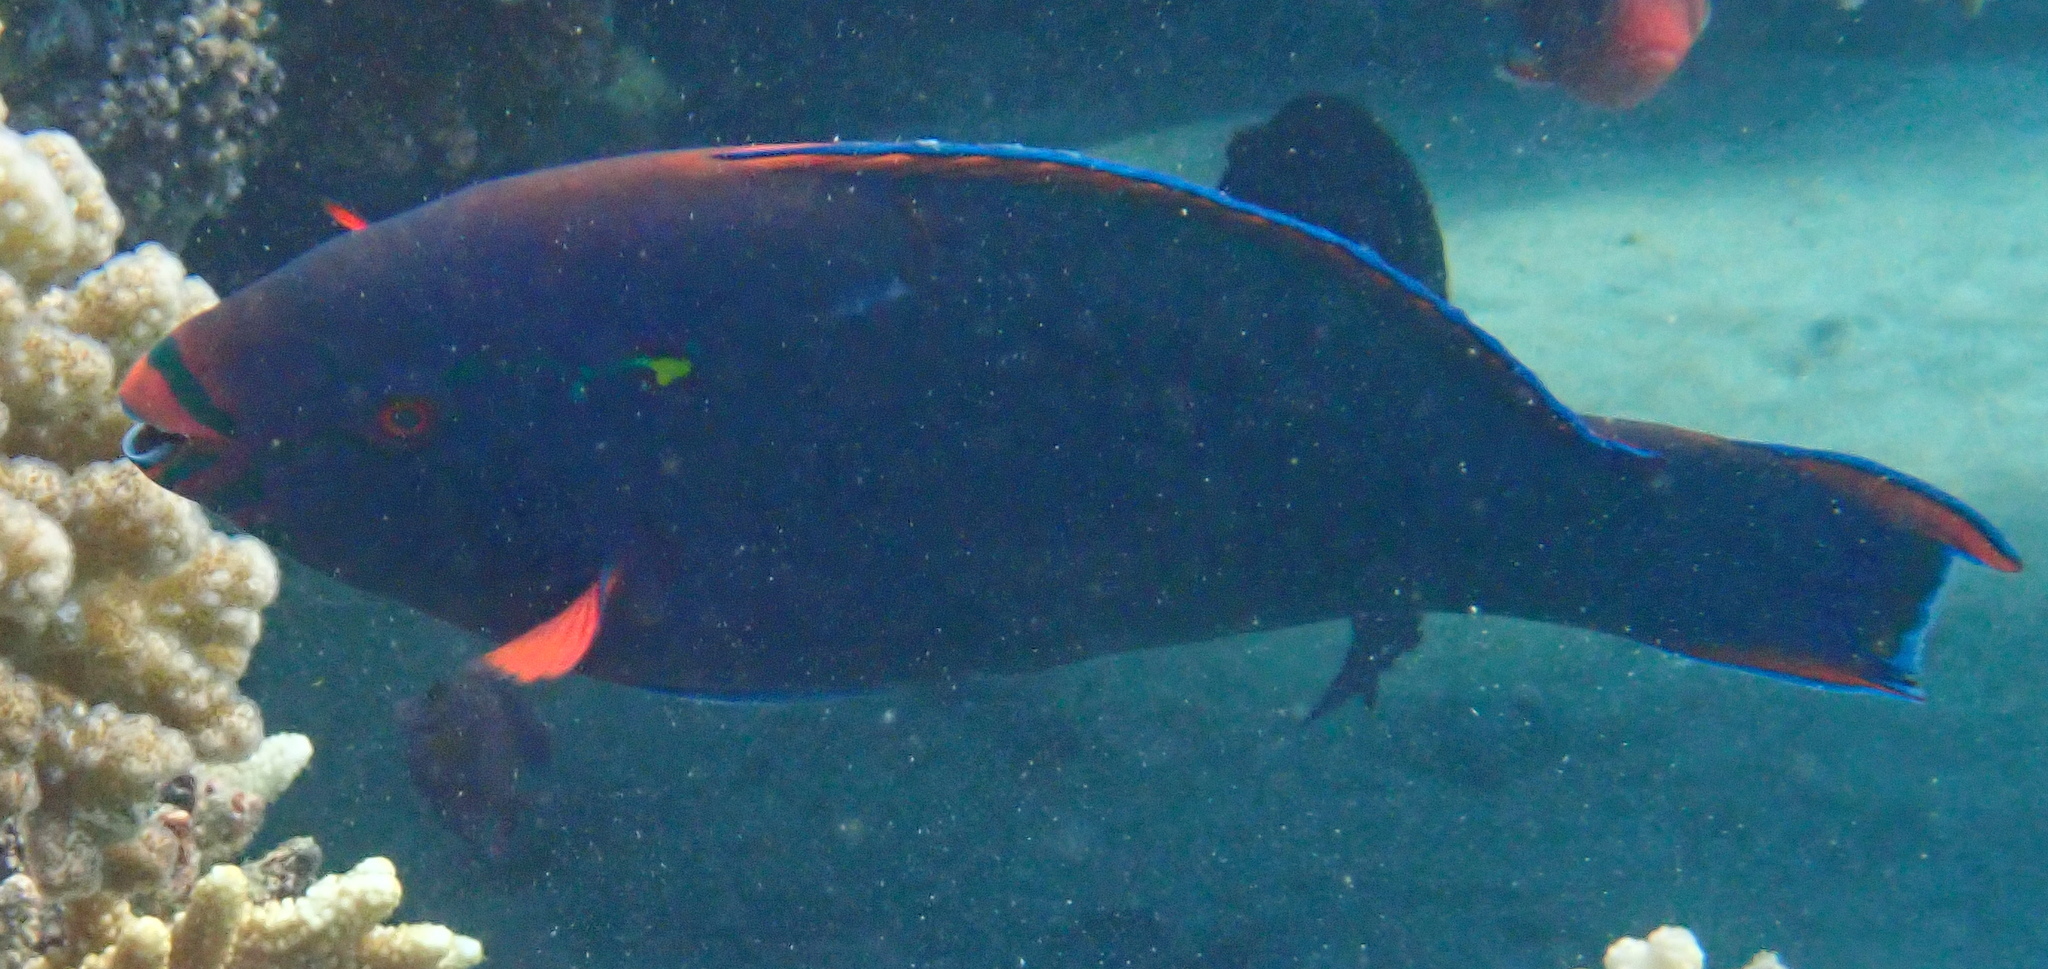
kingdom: Animalia
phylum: Chordata
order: Perciformes
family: Scaridae
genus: Scarus
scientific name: Scarus niger
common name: Dusky parrotfish
